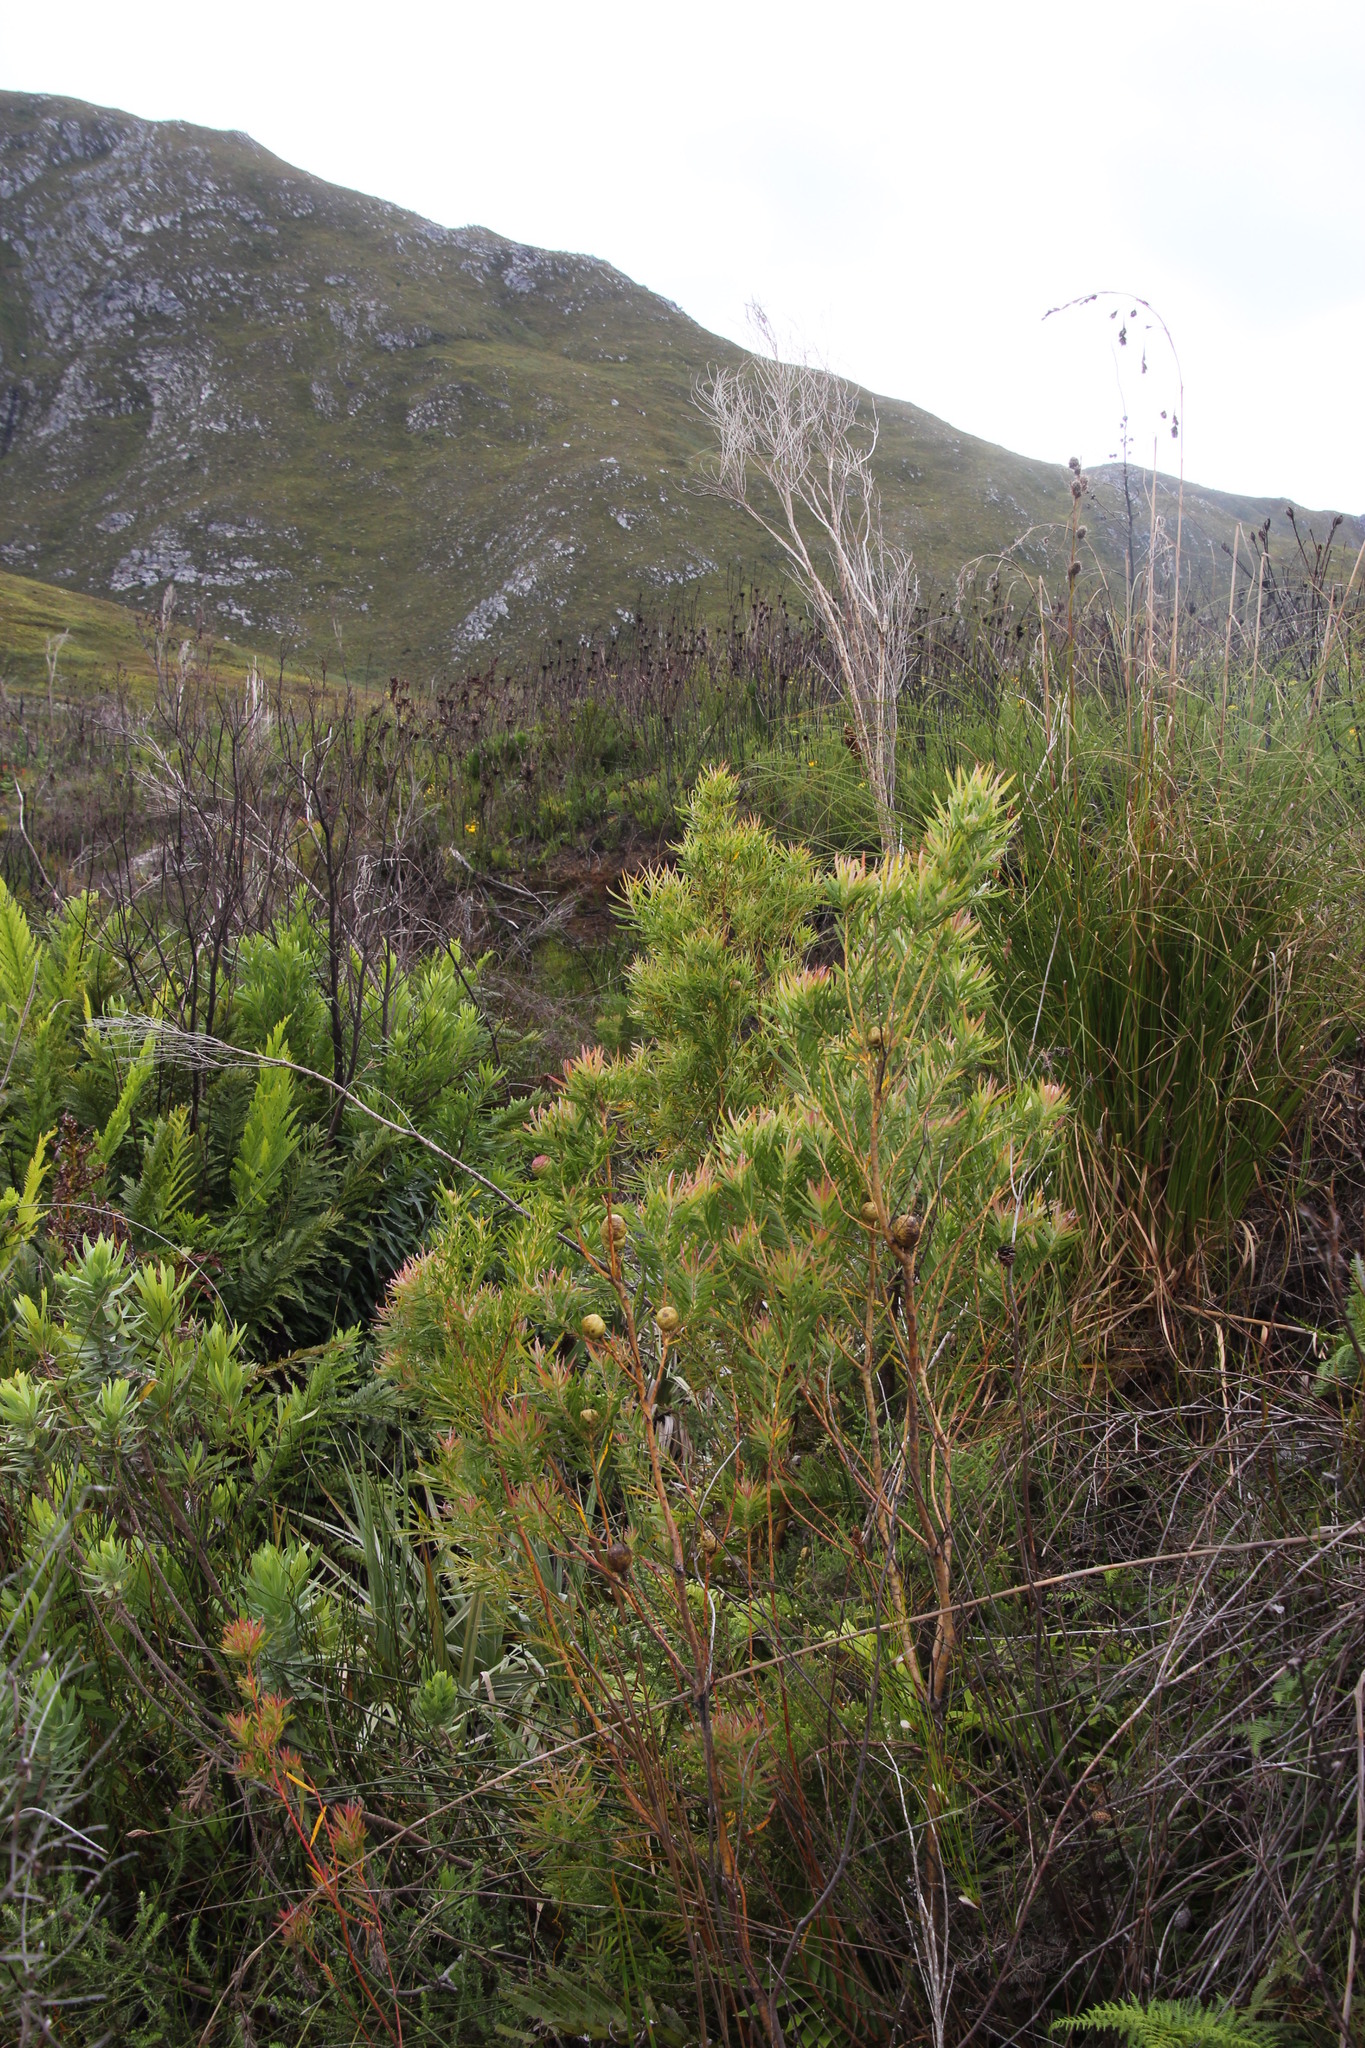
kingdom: Plantae
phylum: Tracheophyta
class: Magnoliopsida
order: Proteales
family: Proteaceae
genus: Leucadendron
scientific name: Leucadendron salicifolium
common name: Common stream conebush
